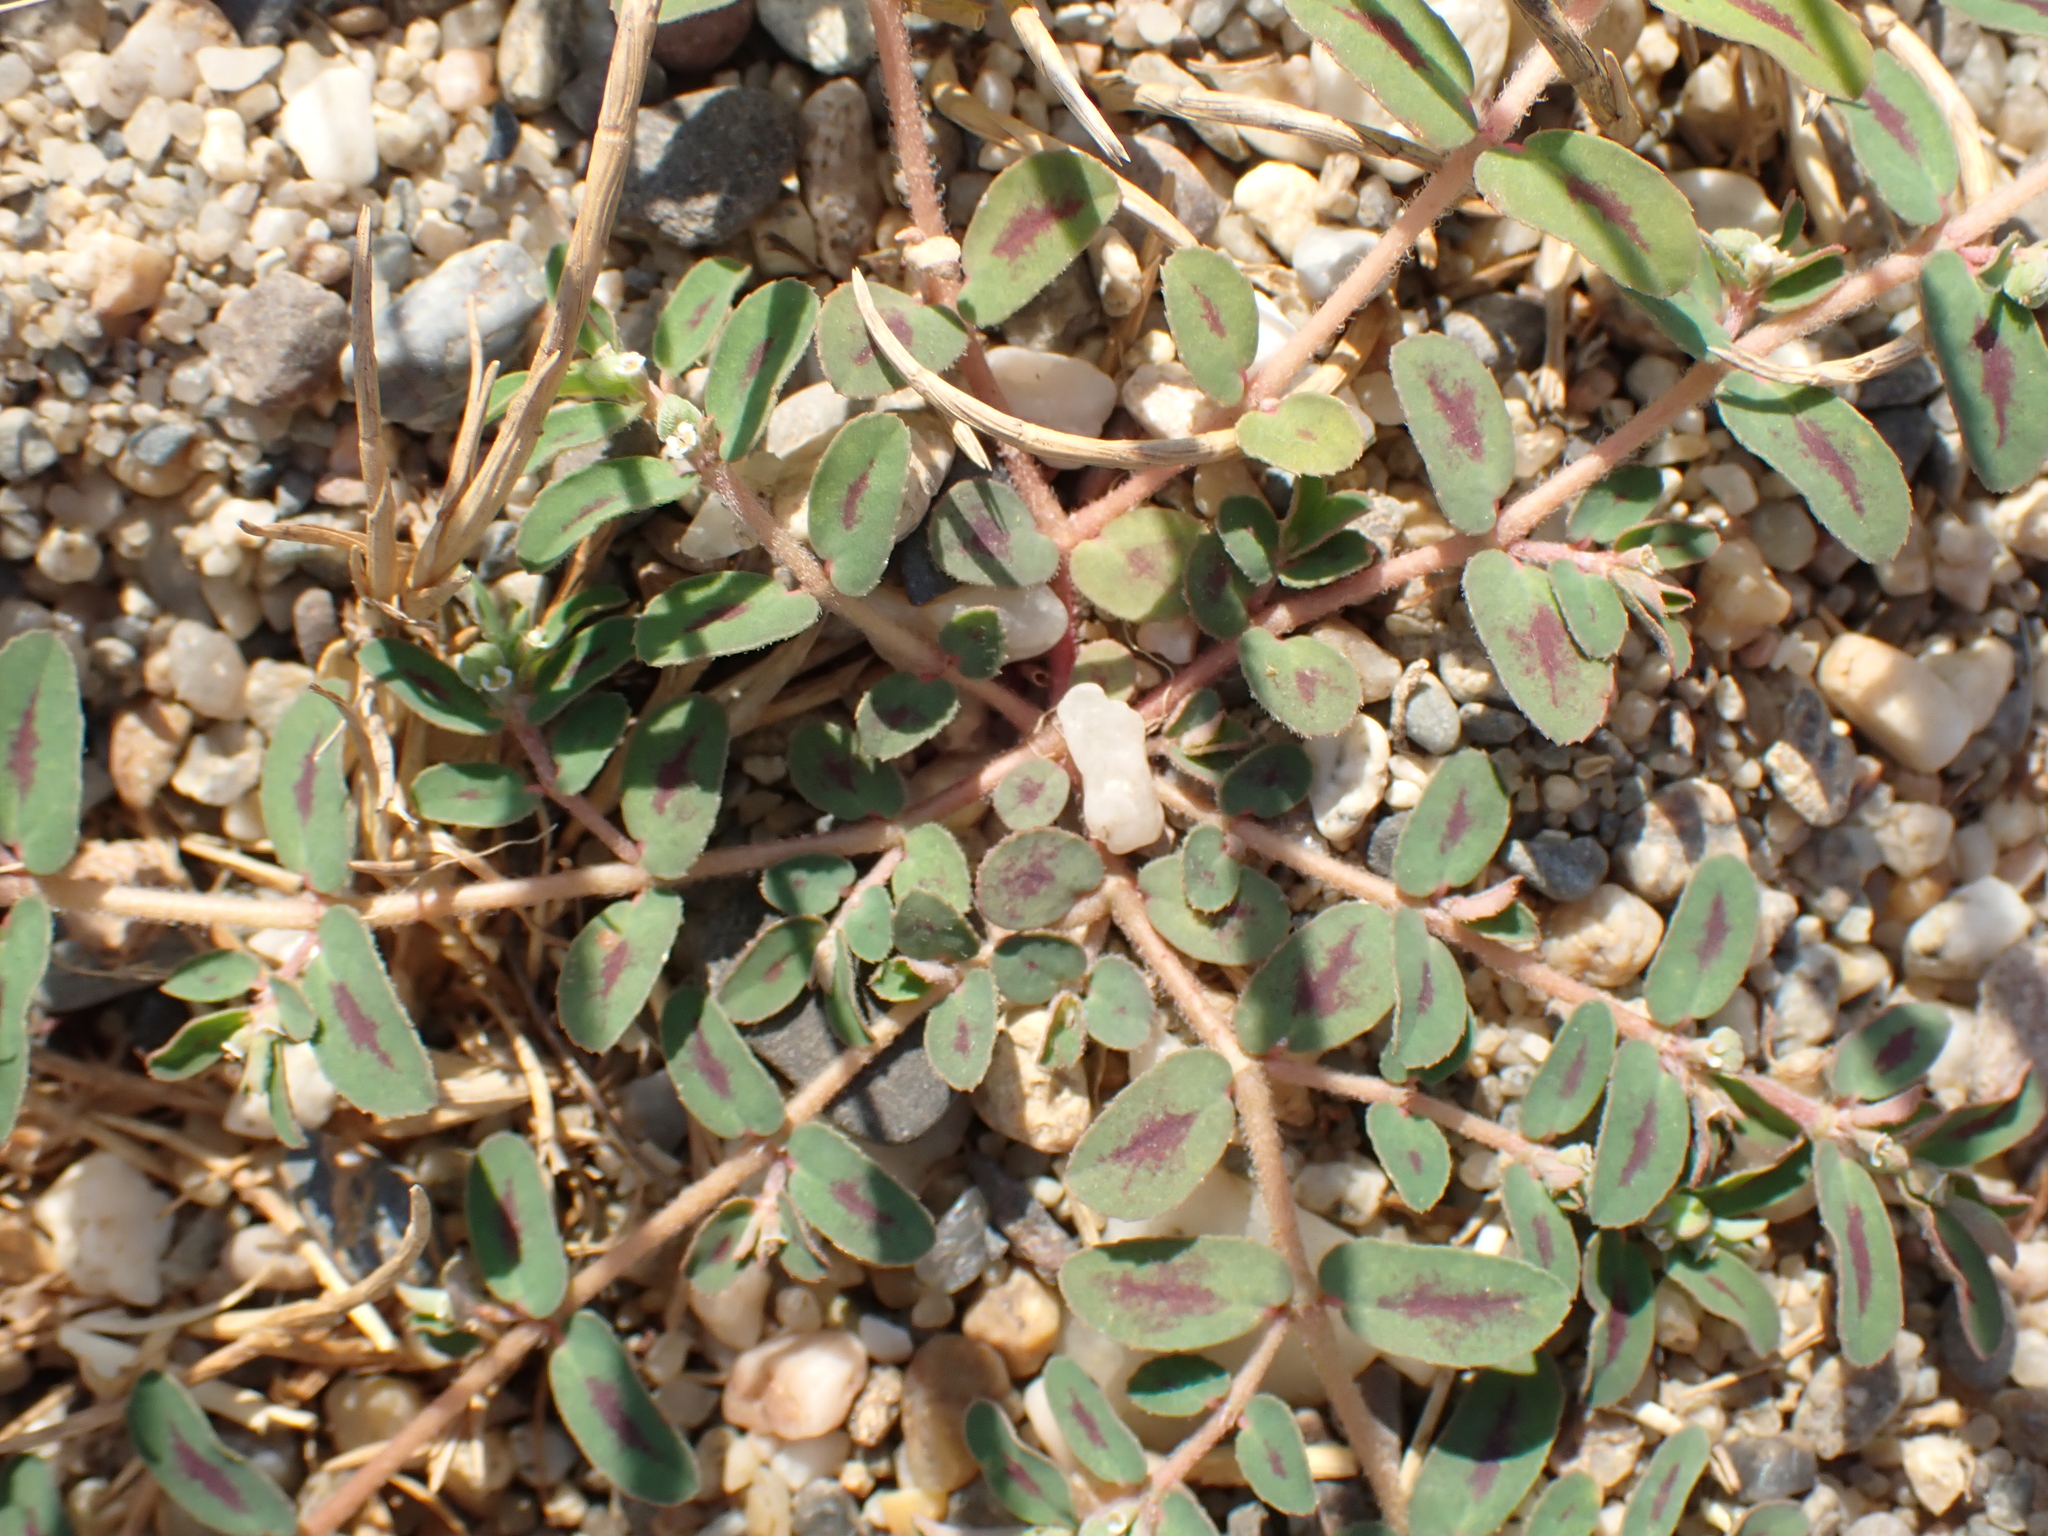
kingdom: Plantae
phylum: Tracheophyta
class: Magnoliopsida
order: Malpighiales
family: Euphorbiaceae
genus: Euphorbia
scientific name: Euphorbia maculata
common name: Spotted spurge
